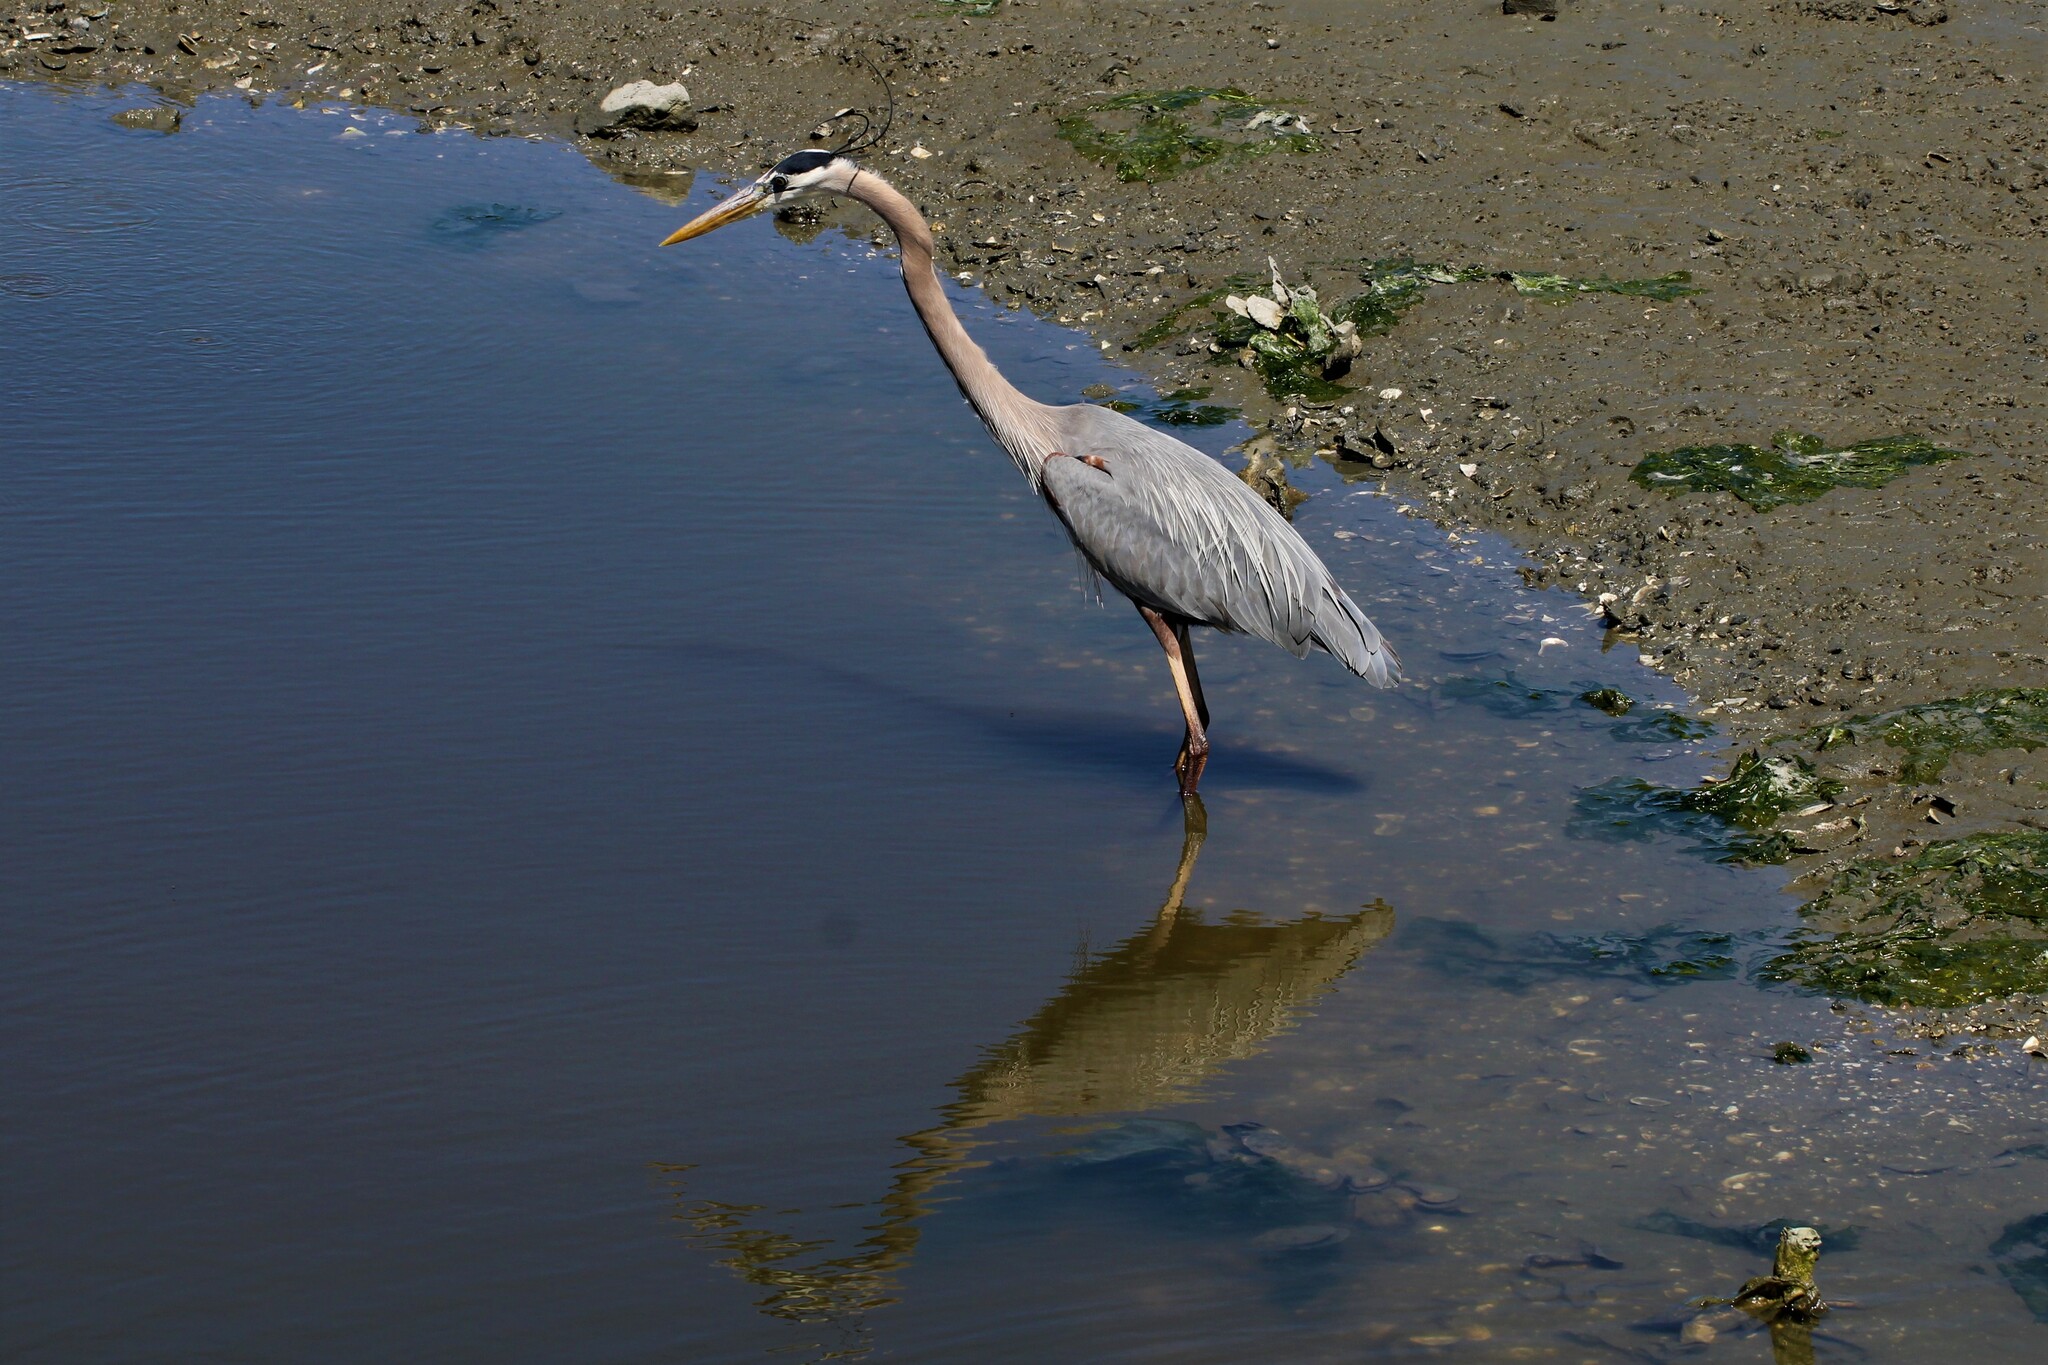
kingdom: Animalia
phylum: Chordata
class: Aves
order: Pelecaniformes
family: Ardeidae
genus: Ardea
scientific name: Ardea herodias
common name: Great blue heron
